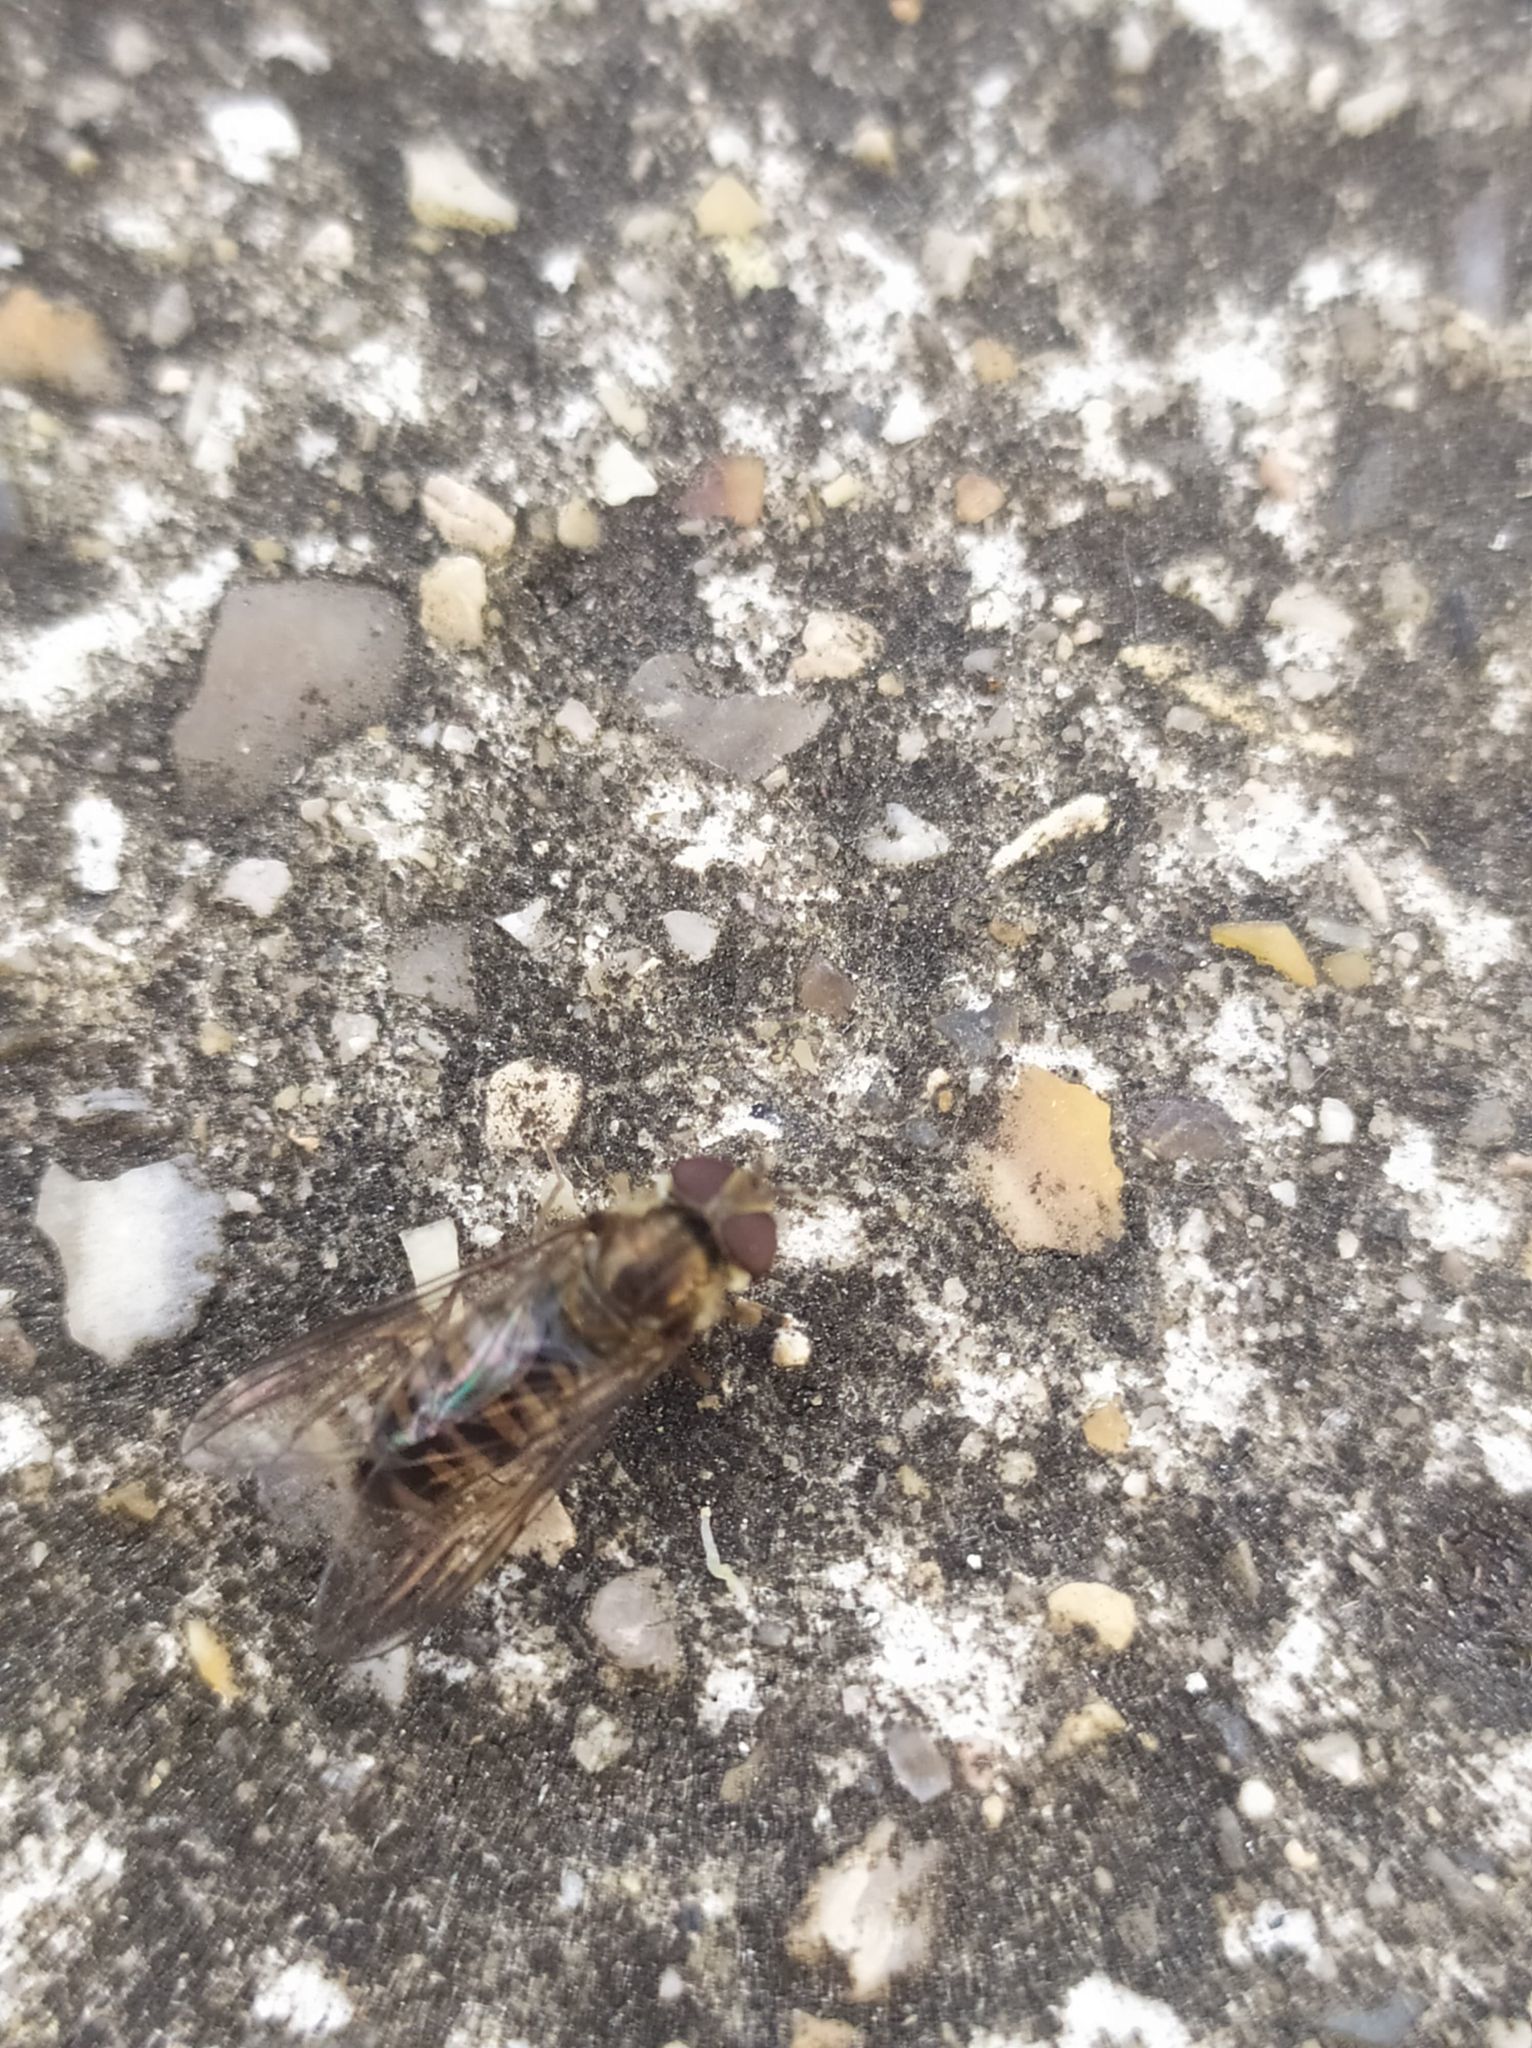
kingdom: Animalia
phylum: Arthropoda
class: Insecta
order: Diptera
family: Syrphidae
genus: Episyrphus
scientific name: Episyrphus balteatus
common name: Marmalade hoverfly
